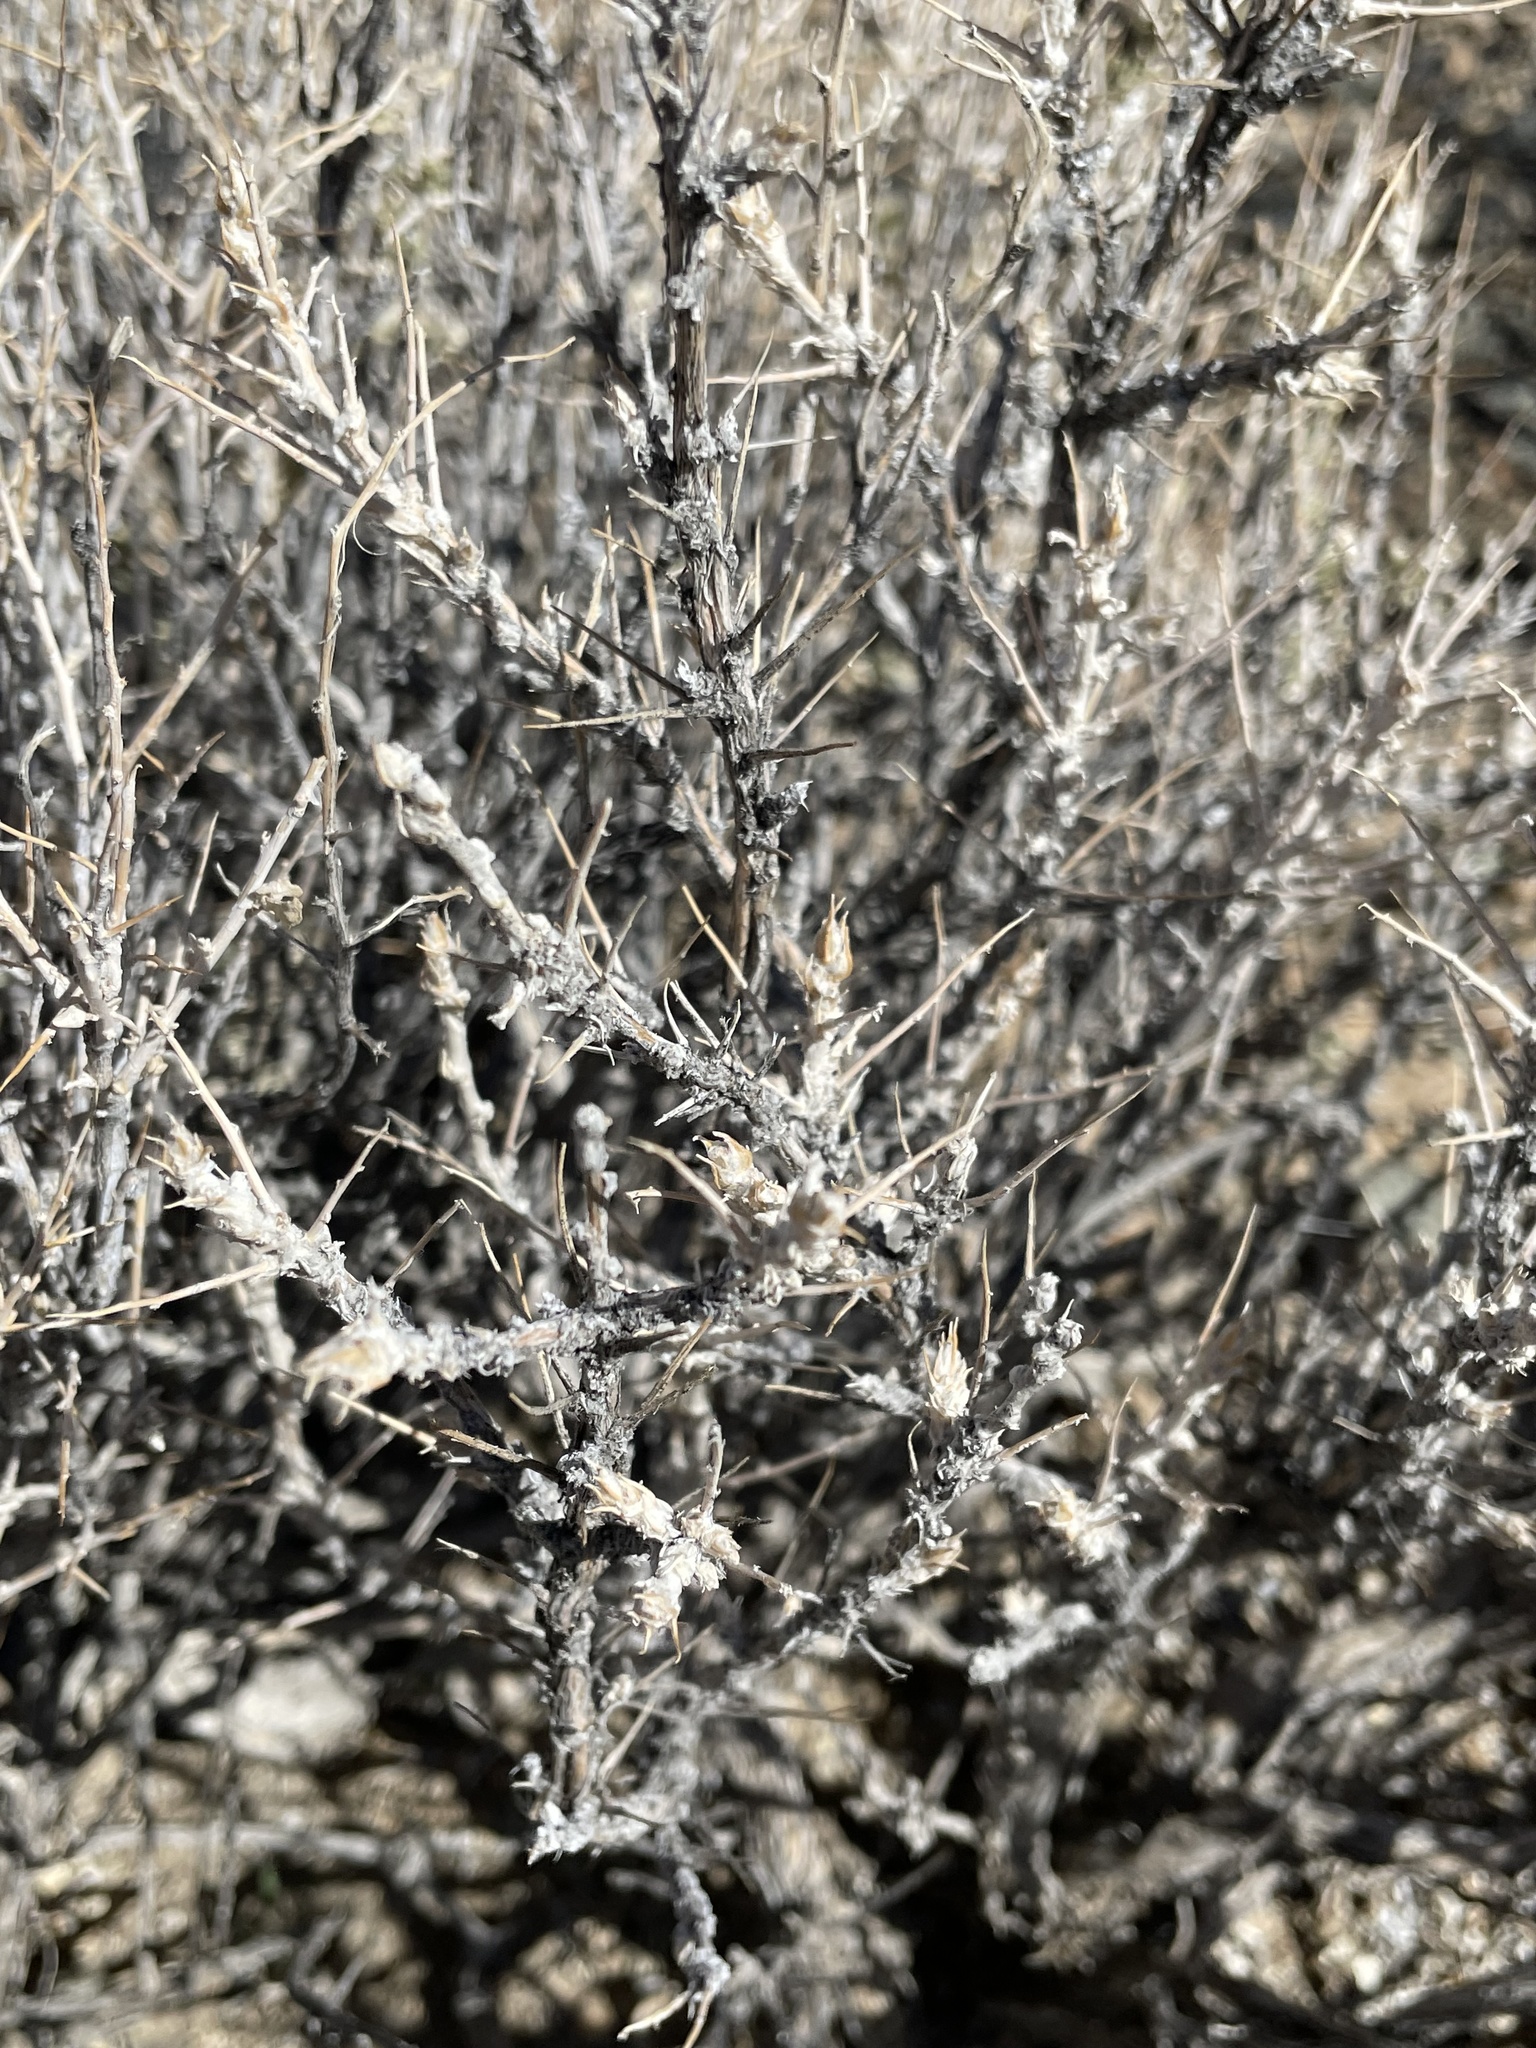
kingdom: Plantae
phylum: Tracheophyta
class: Magnoliopsida
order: Asterales
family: Asteraceae
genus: Artemisia
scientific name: Artemisia spinescens
